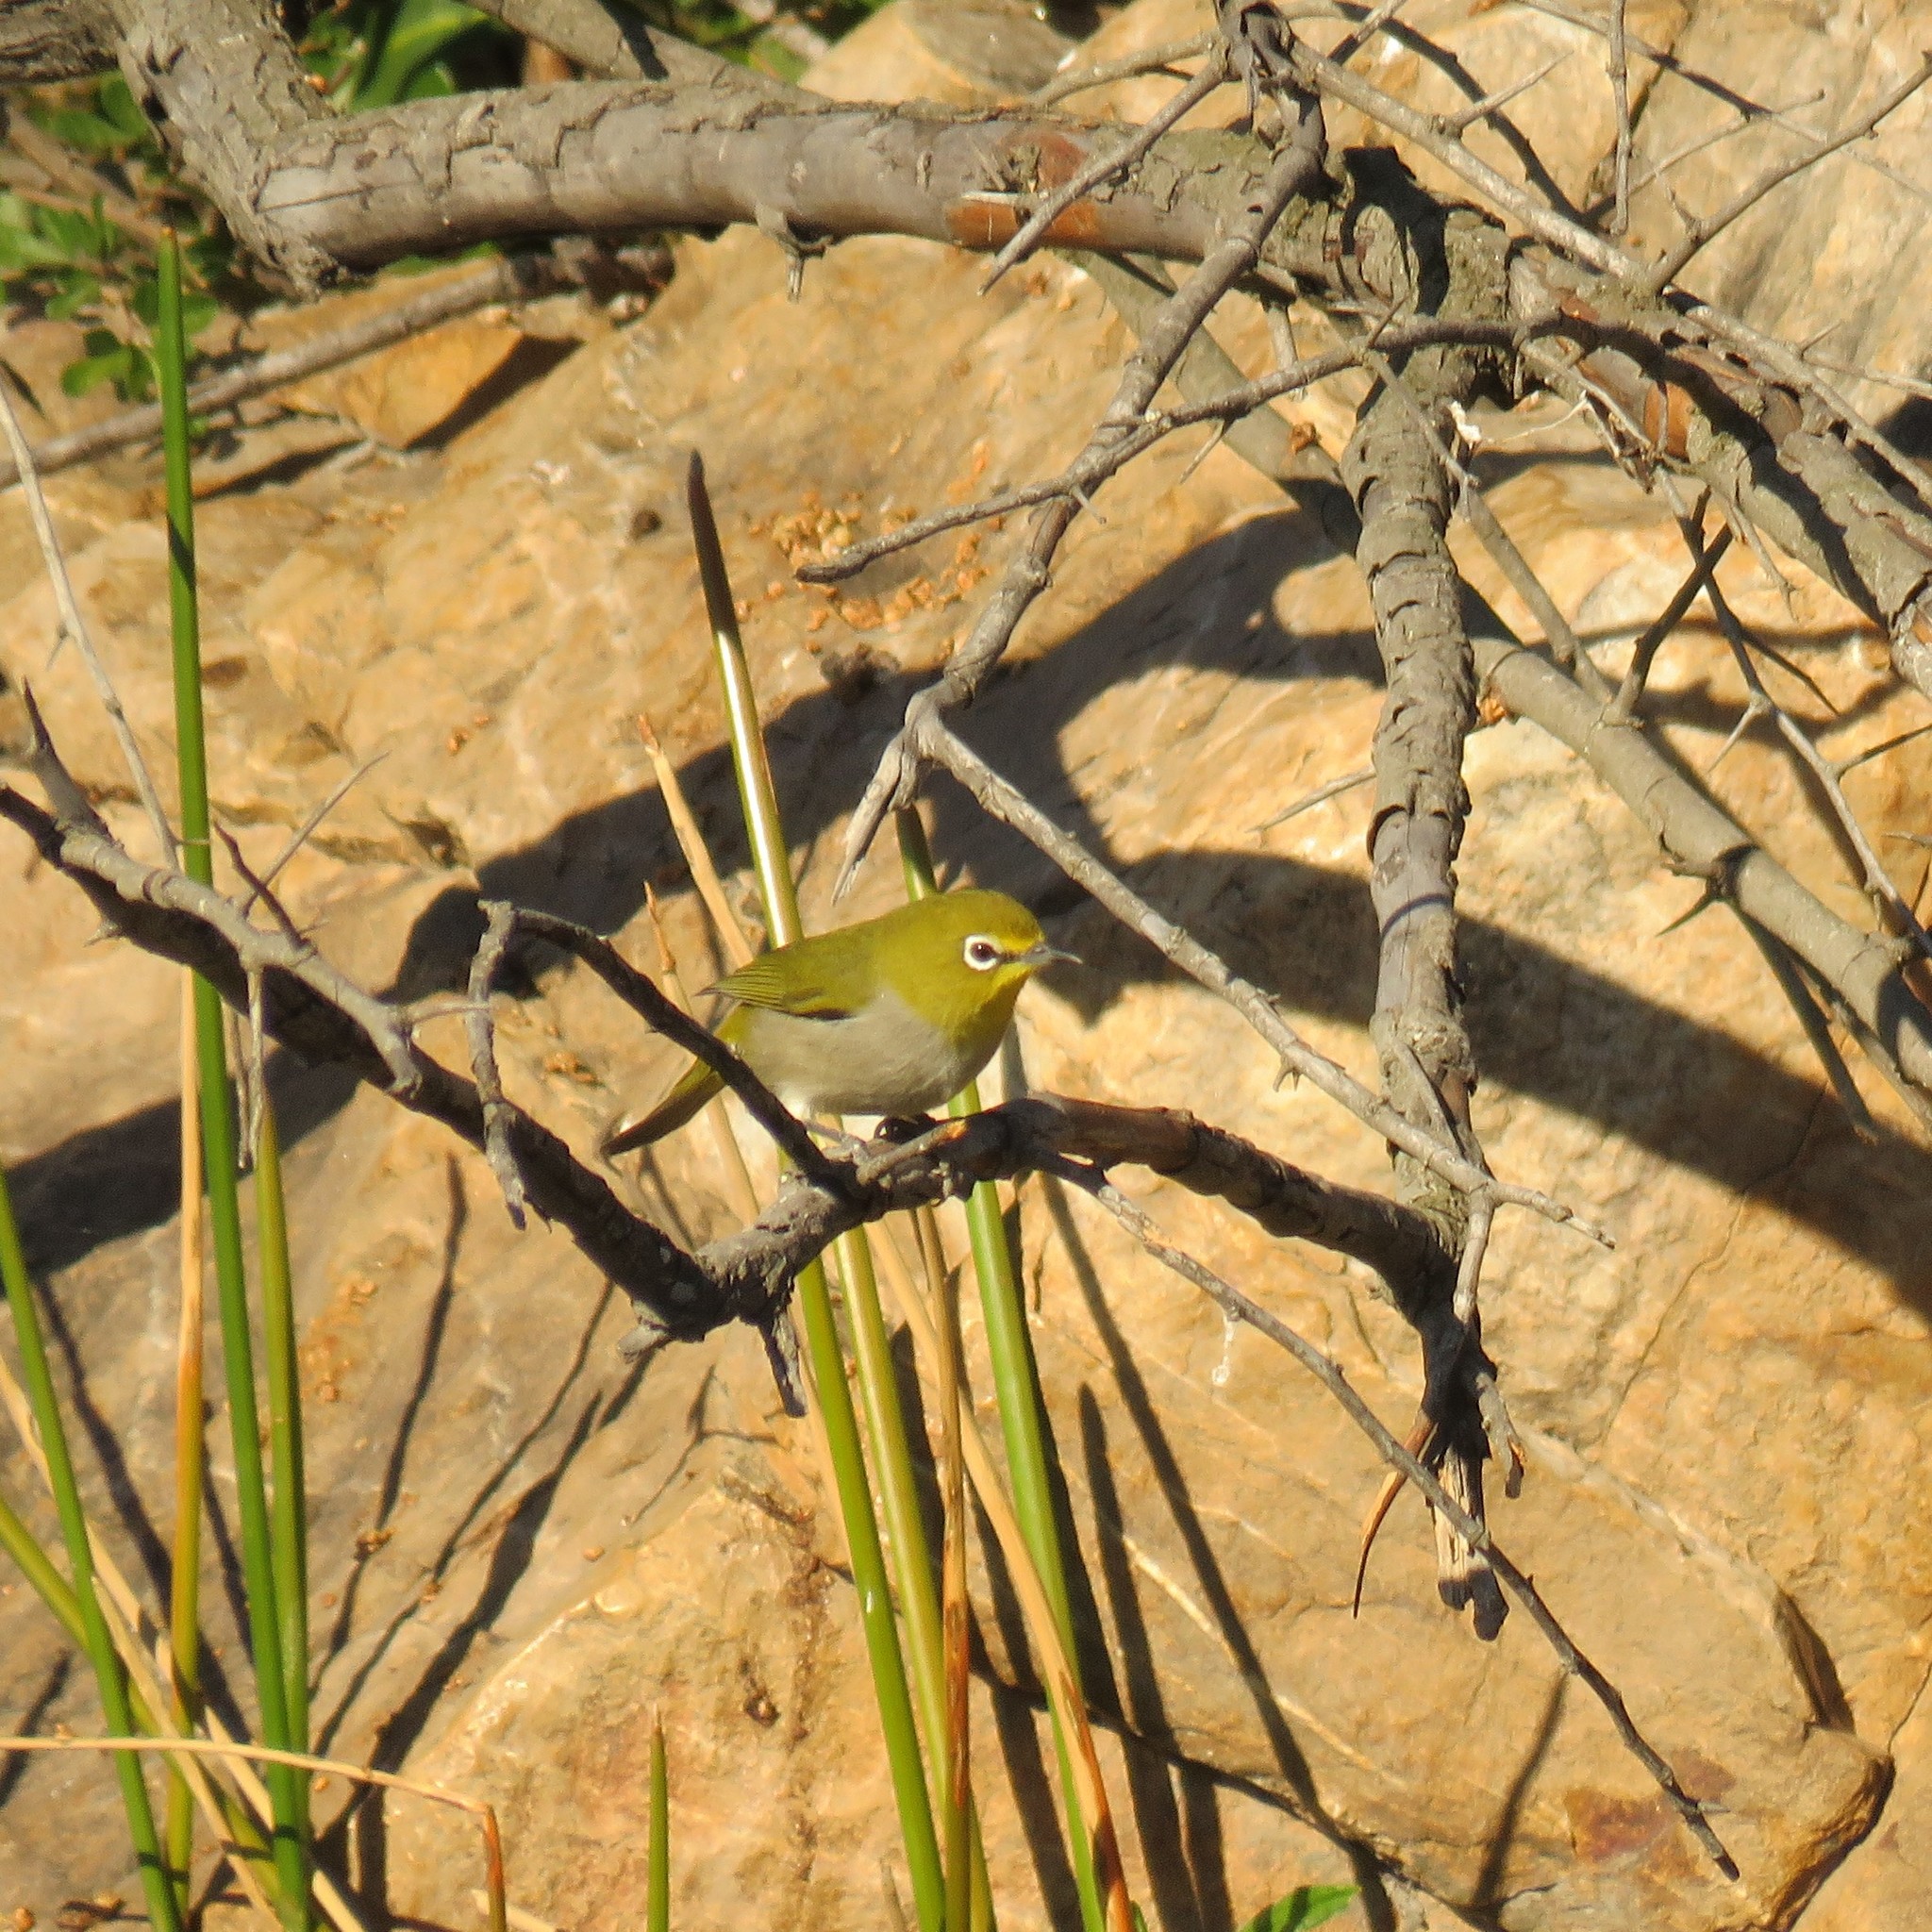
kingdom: Animalia
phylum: Chordata
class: Aves
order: Passeriformes
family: Zosteropidae
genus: Zosterops
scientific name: Zosterops virens
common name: Cape white-eye
